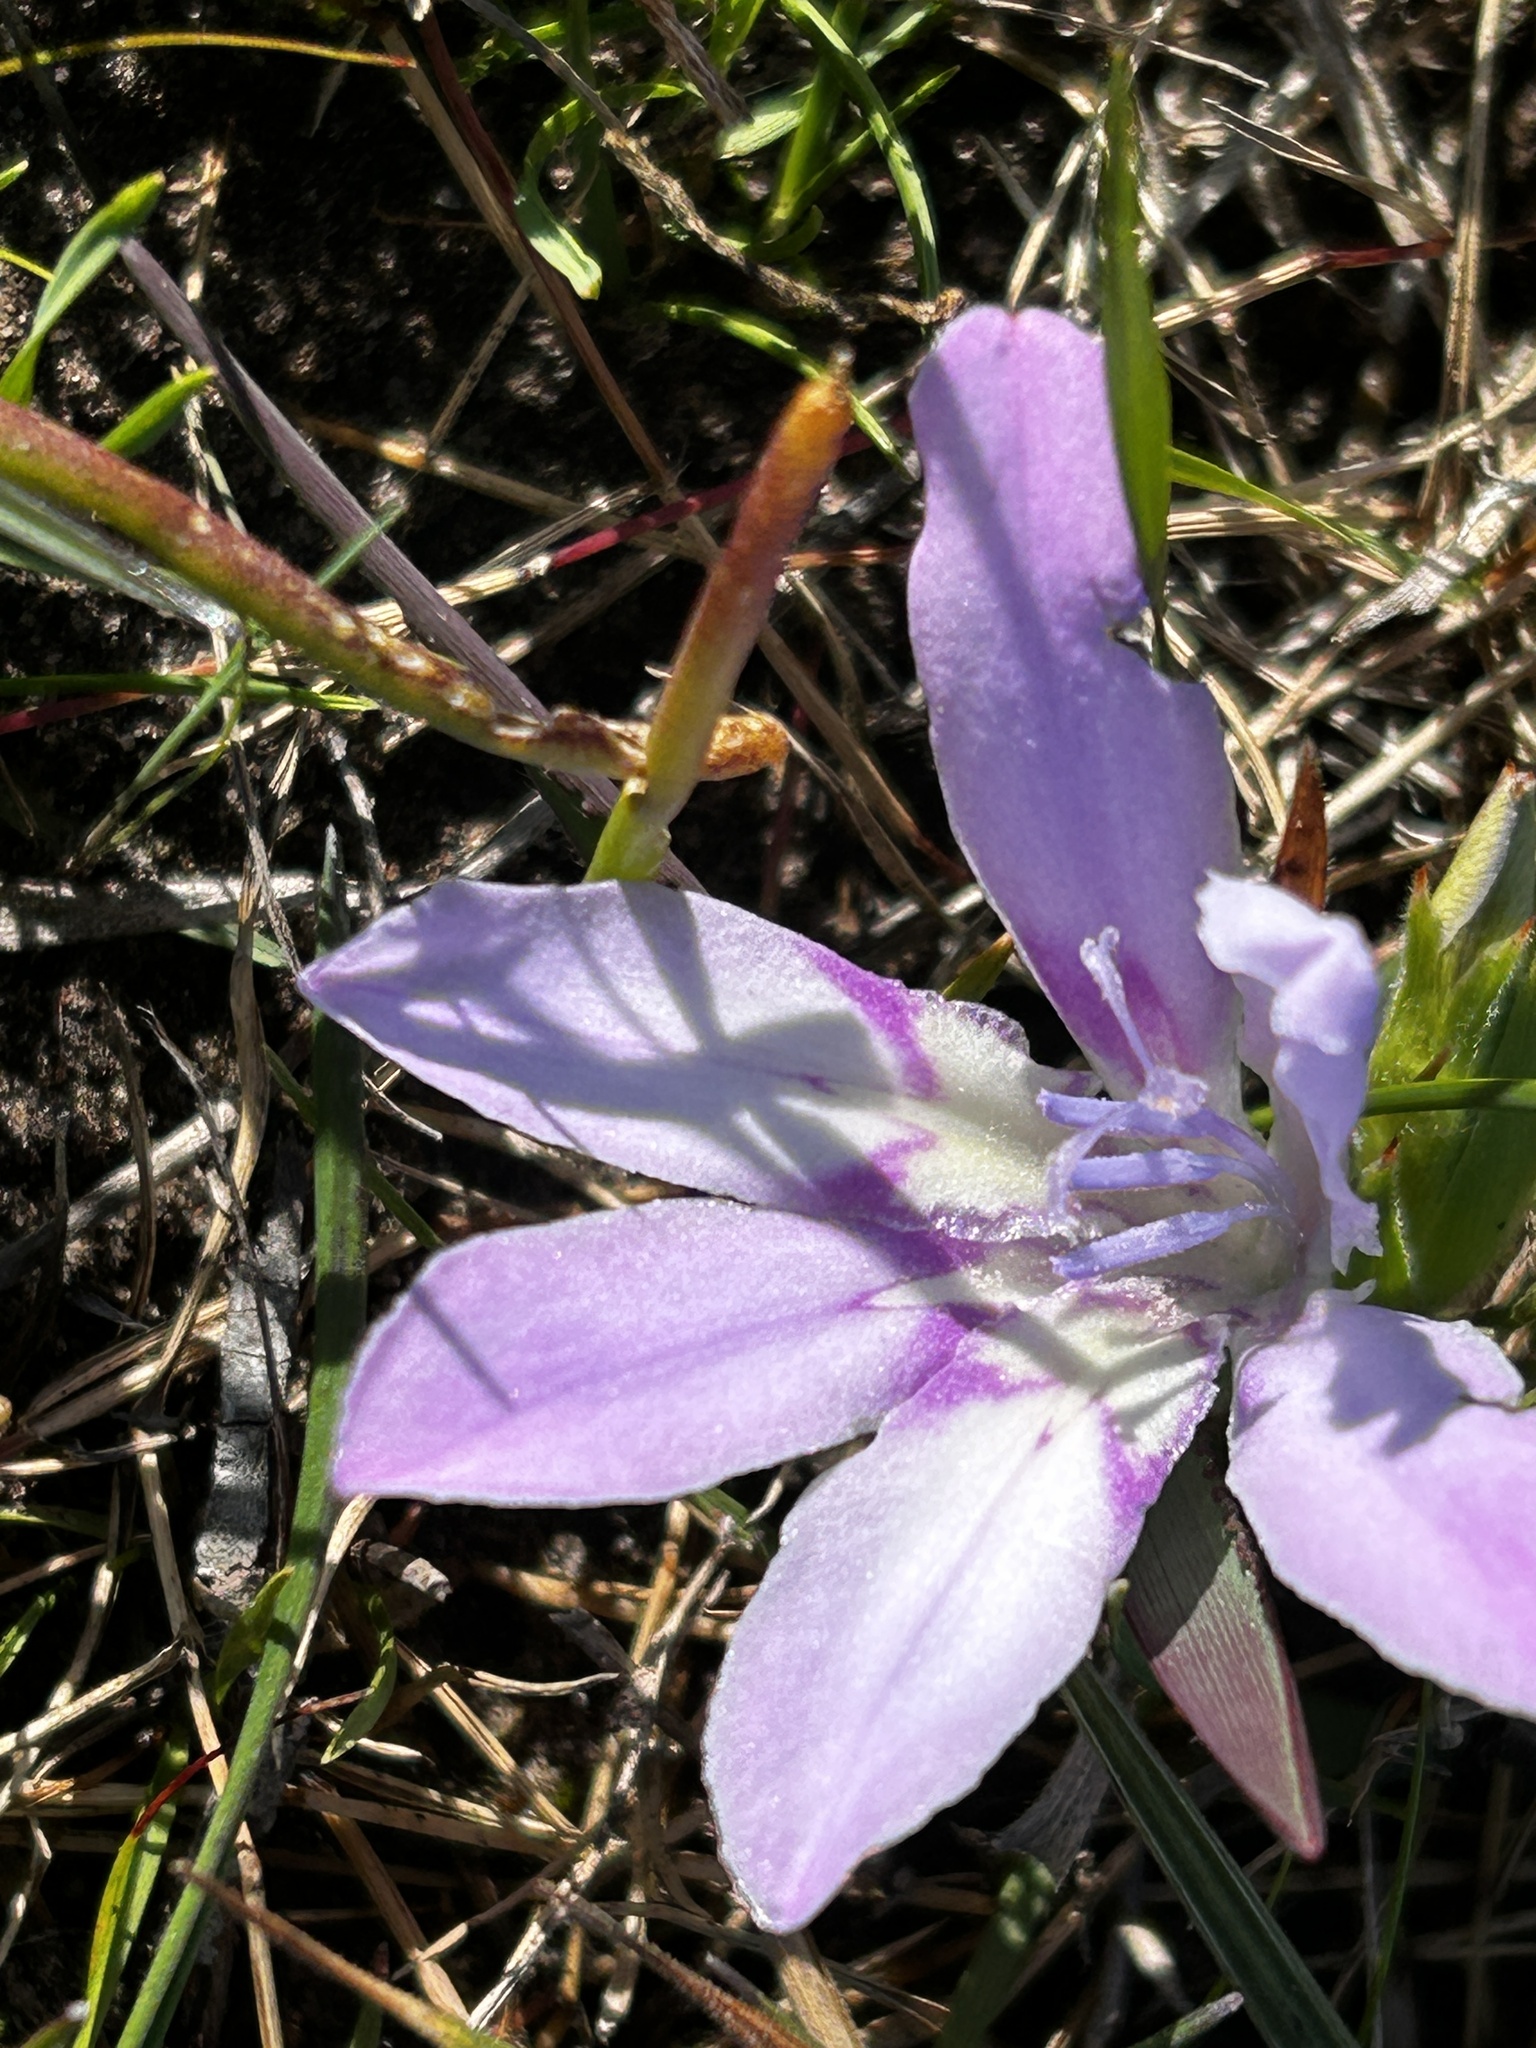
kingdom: Plantae
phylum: Tracheophyta
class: Liliopsida
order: Asparagales
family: Iridaceae
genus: Babiana
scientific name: Babiana ambigua
